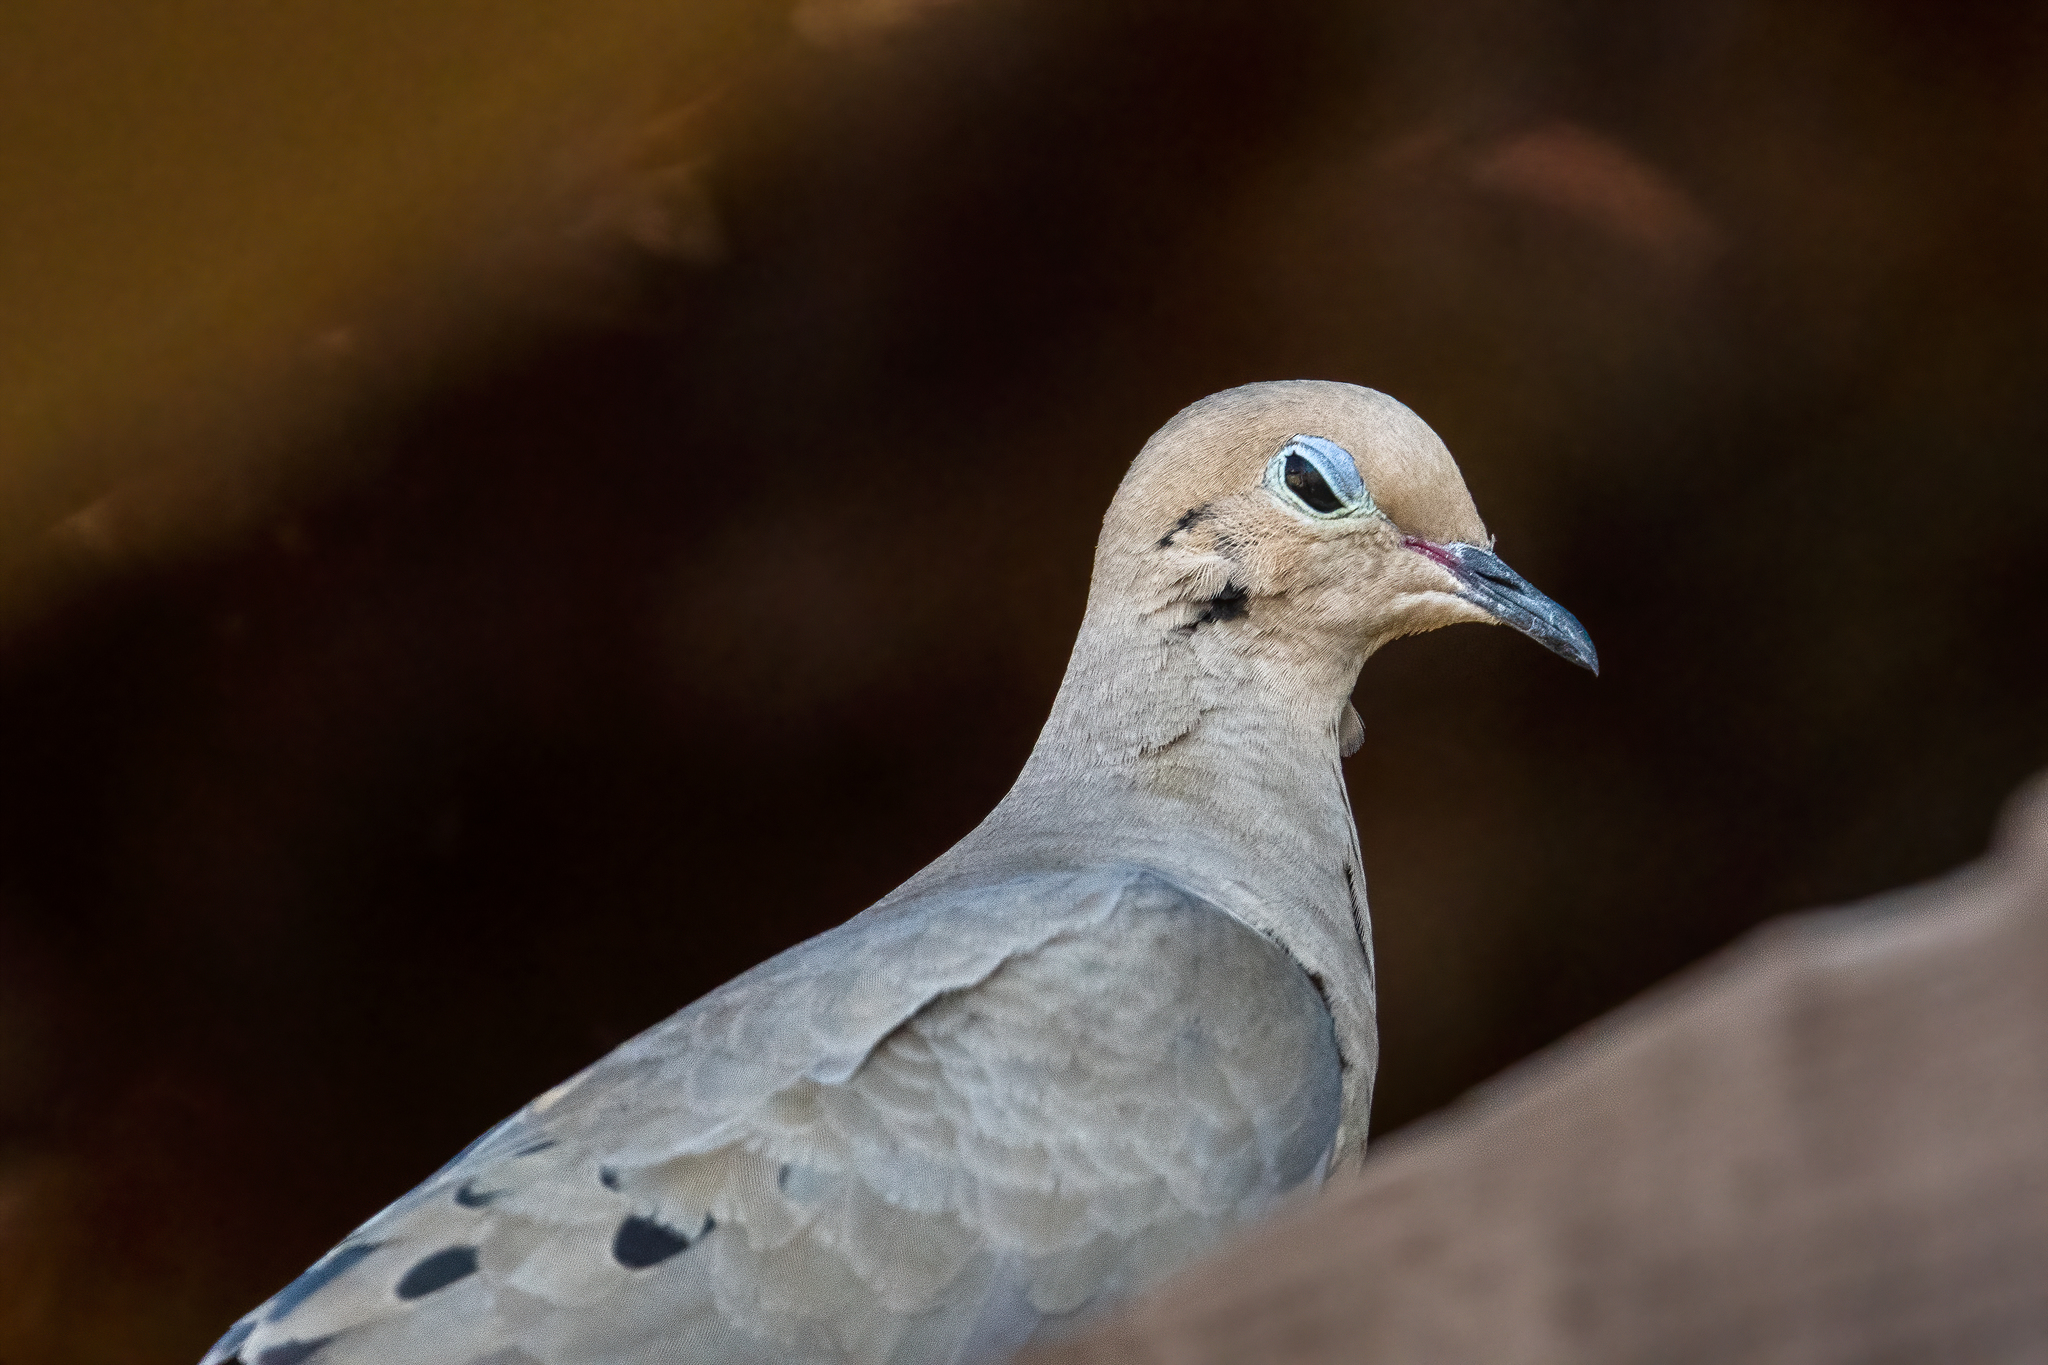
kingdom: Animalia
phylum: Chordata
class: Aves
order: Columbiformes
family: Columbidae
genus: Zenaida
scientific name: Zenaida macroura
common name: Mourning dove
